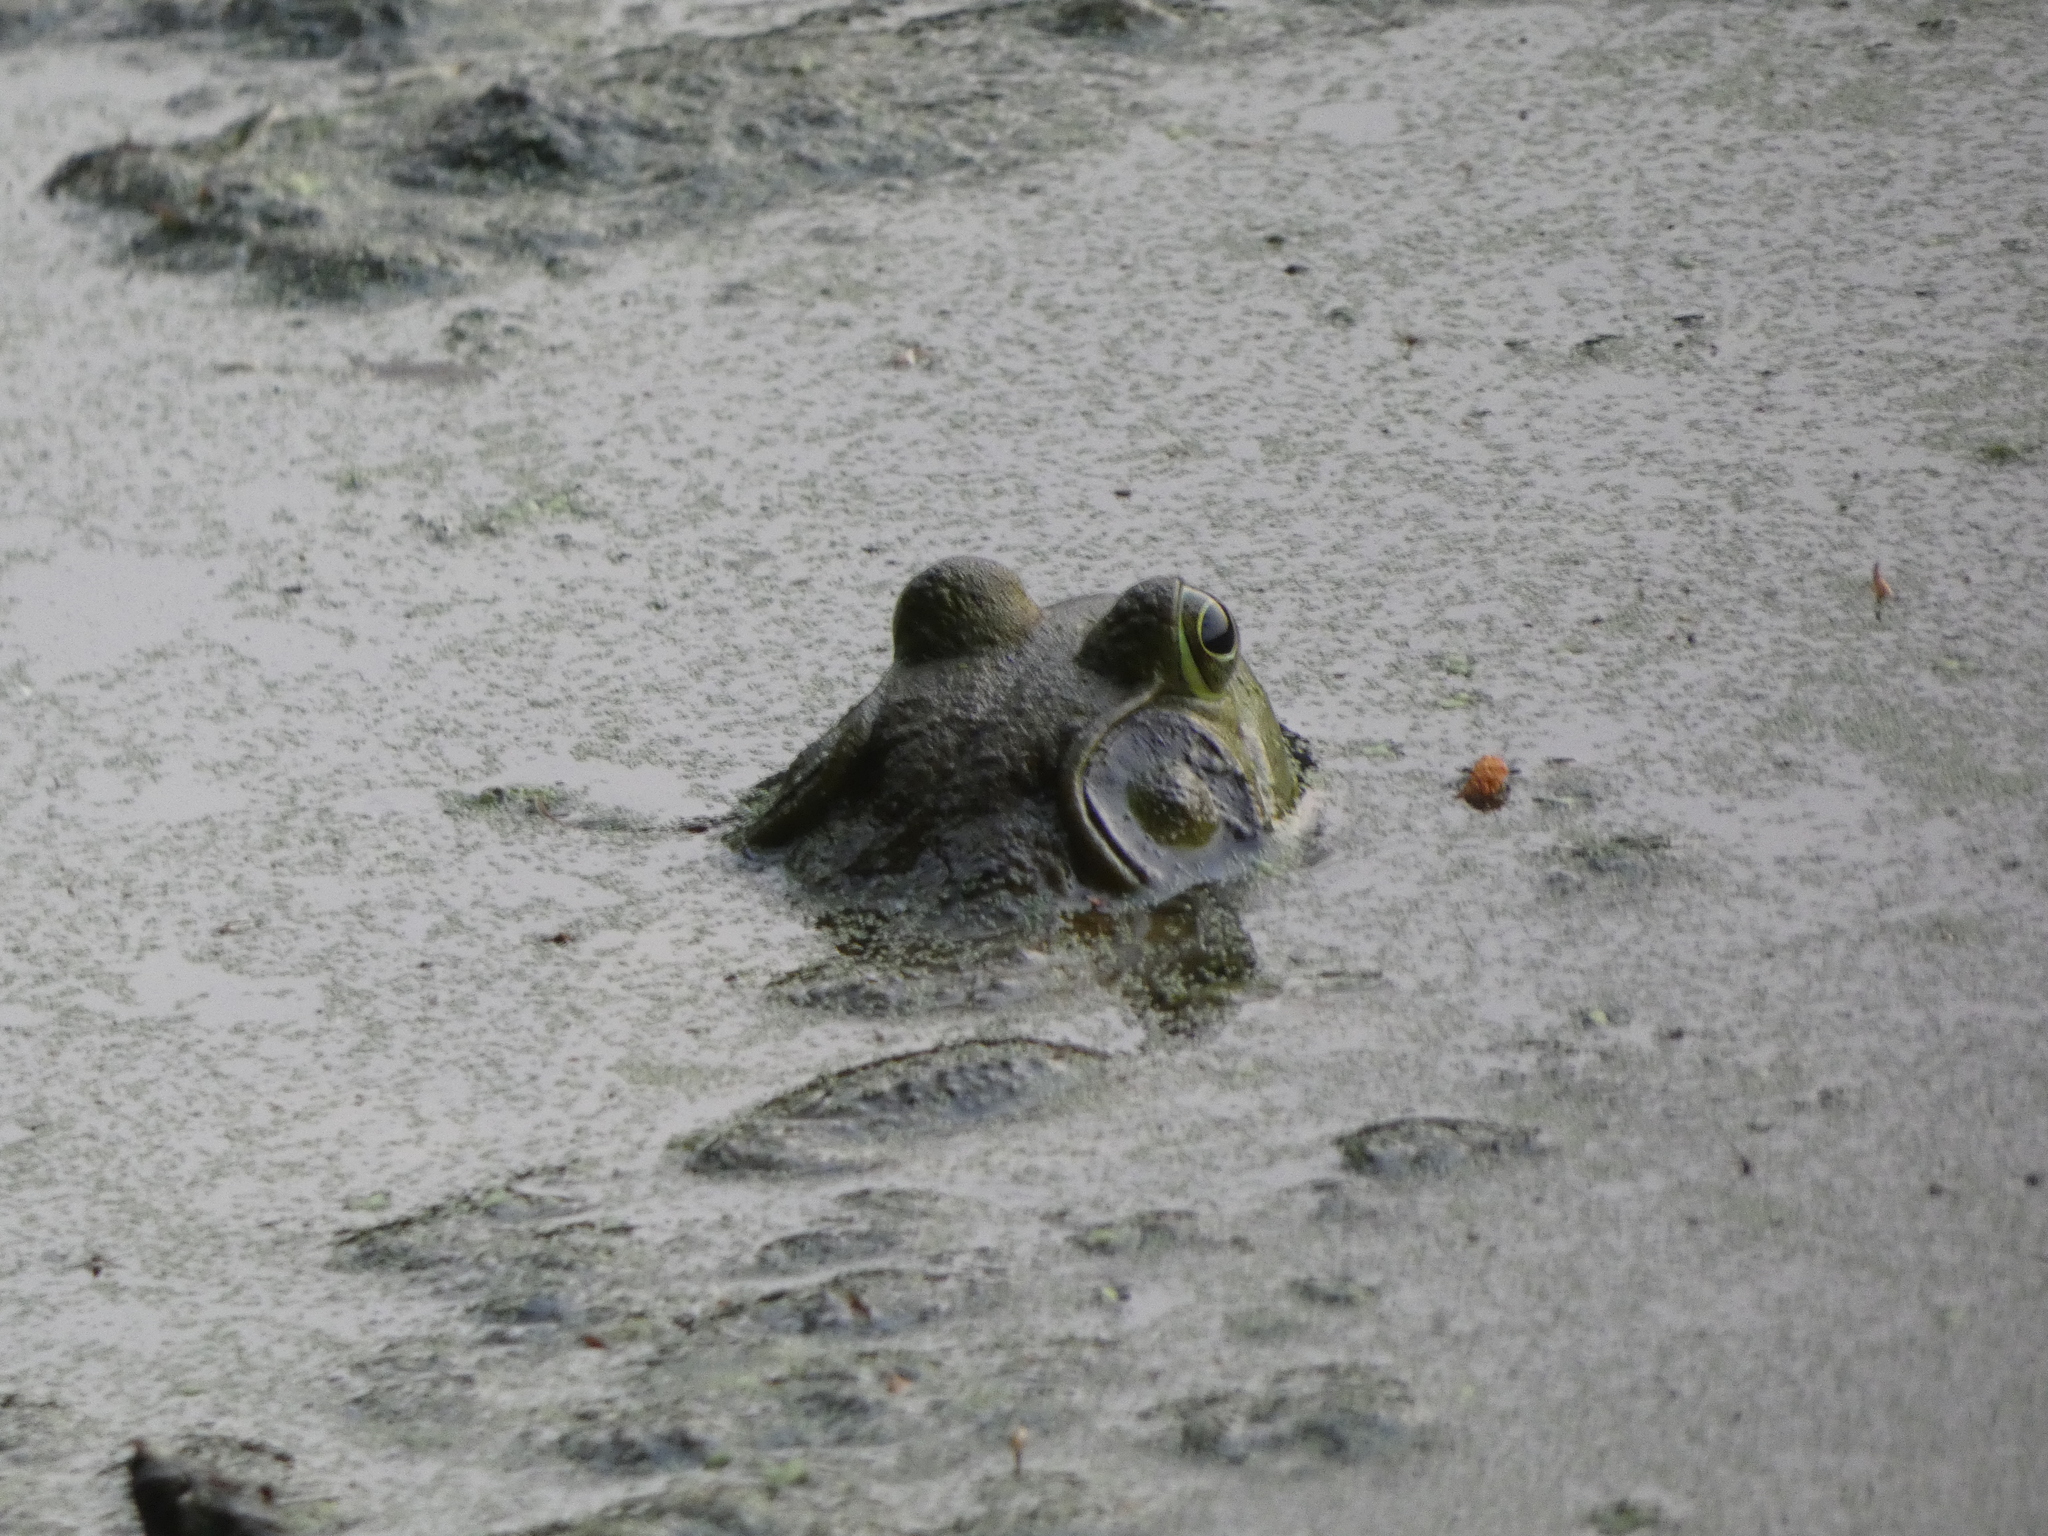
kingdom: Animalia
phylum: Chordata
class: Amphibia
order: Anura
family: Ranidae
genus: Lithobates
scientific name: Lithobates catesbeianus
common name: American bullfrog
